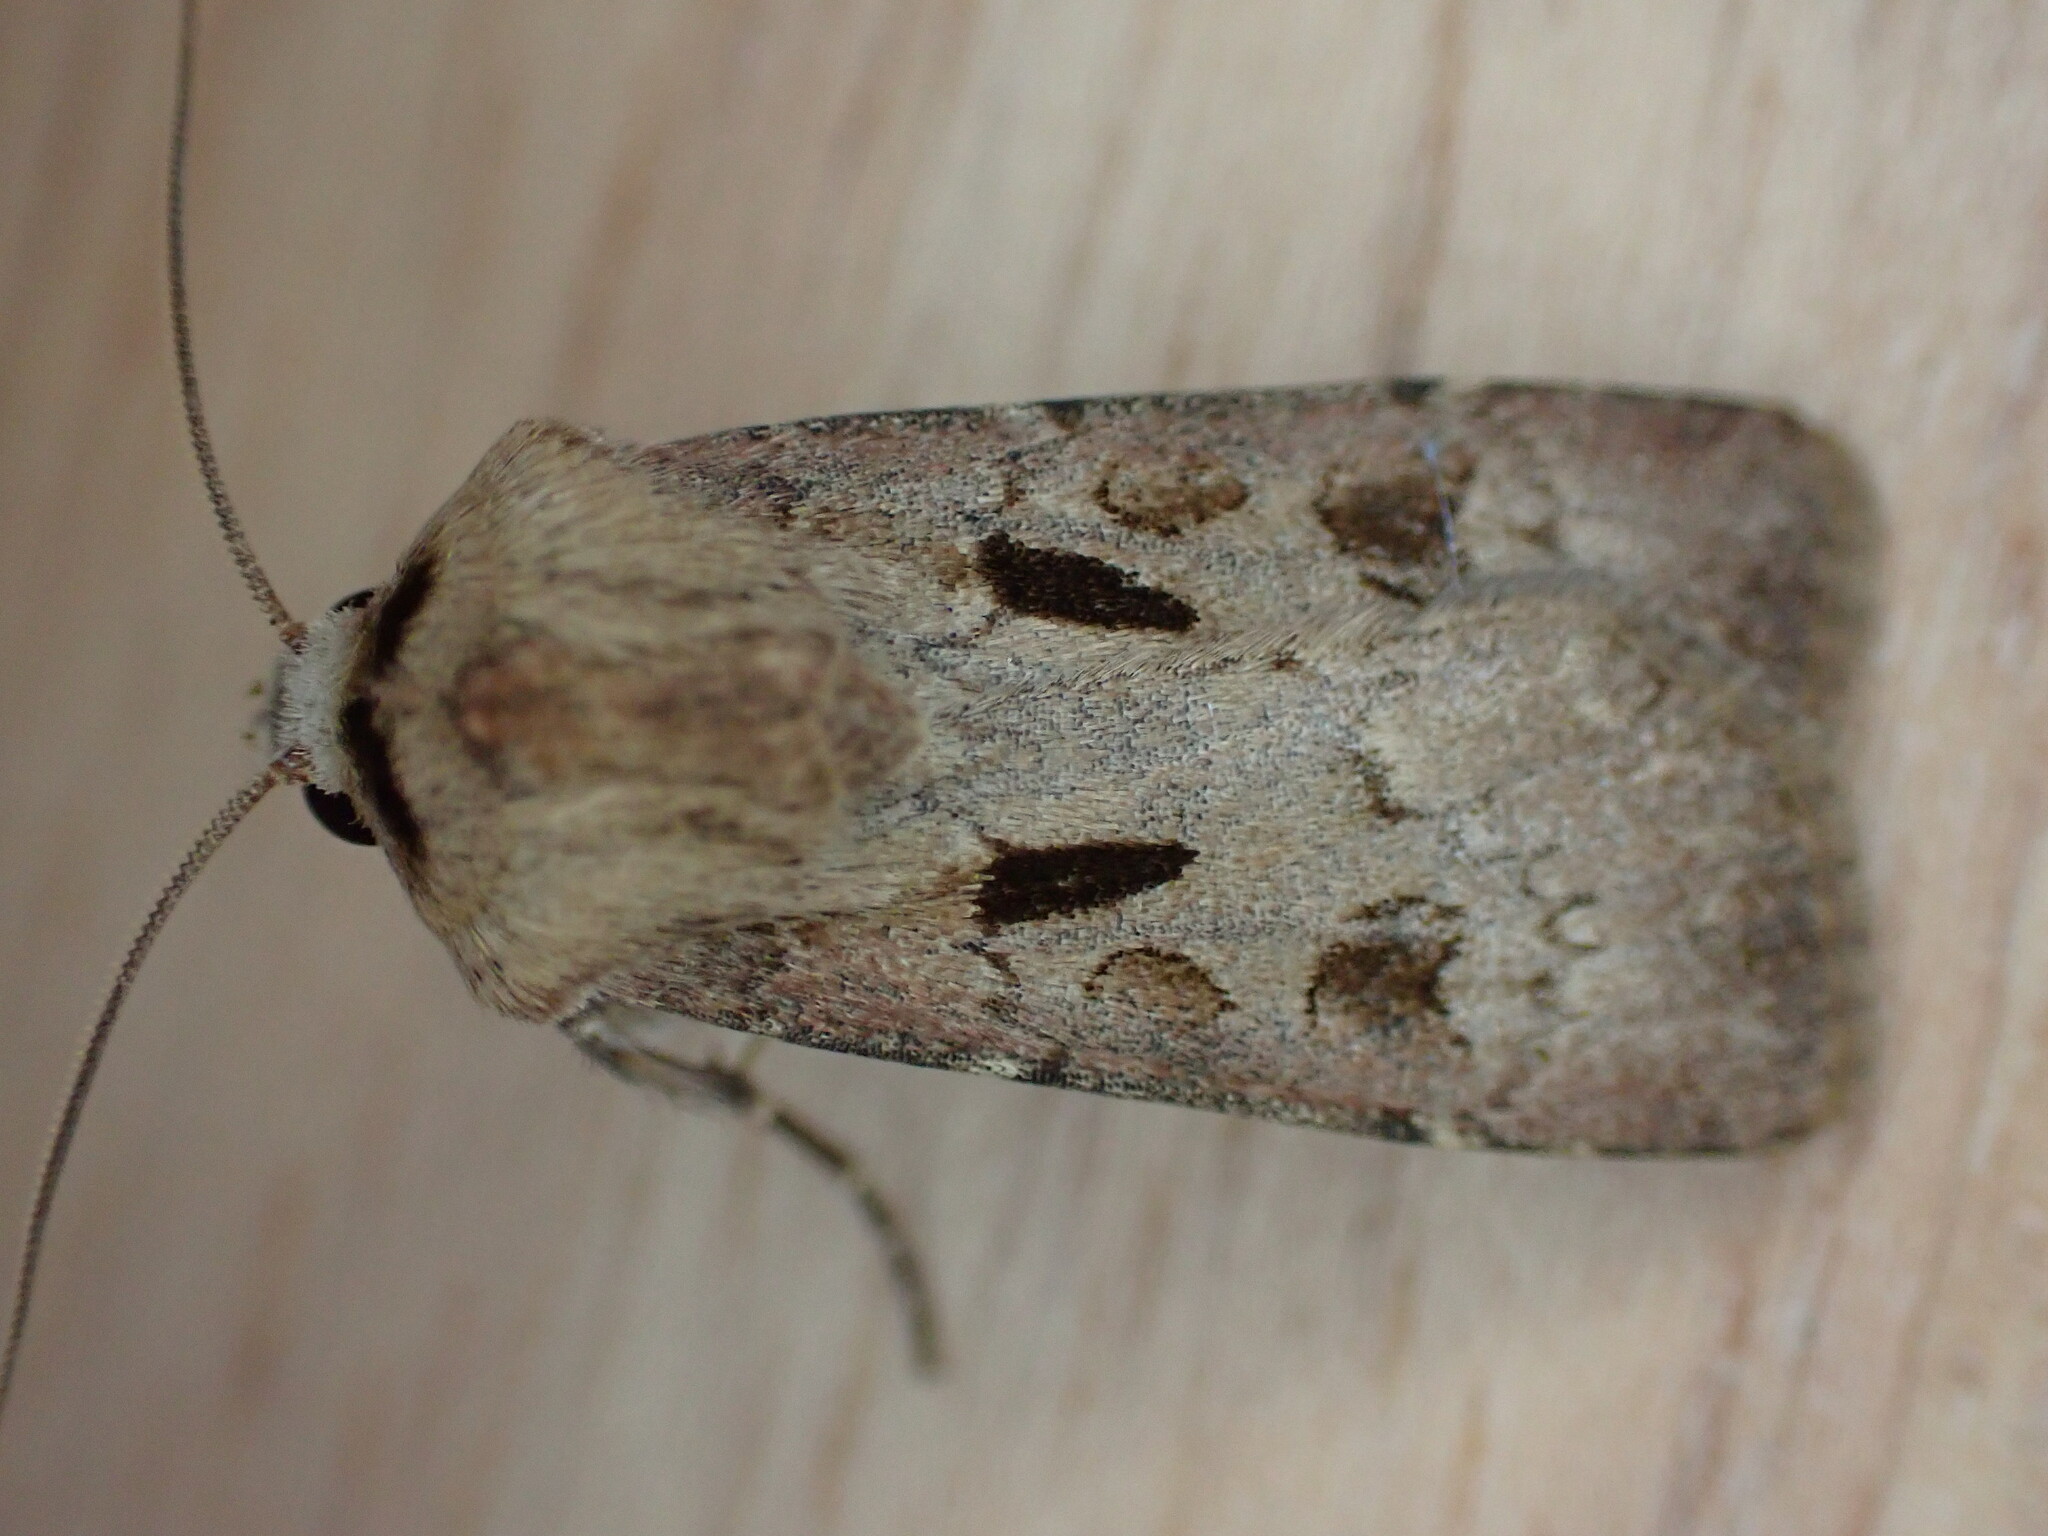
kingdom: Animalia
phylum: Arthropoda
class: Insecta
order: Lepidoptera
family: Noctuidae
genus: Agrotis
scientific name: Agrotis exclamationis
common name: Heart and dart
